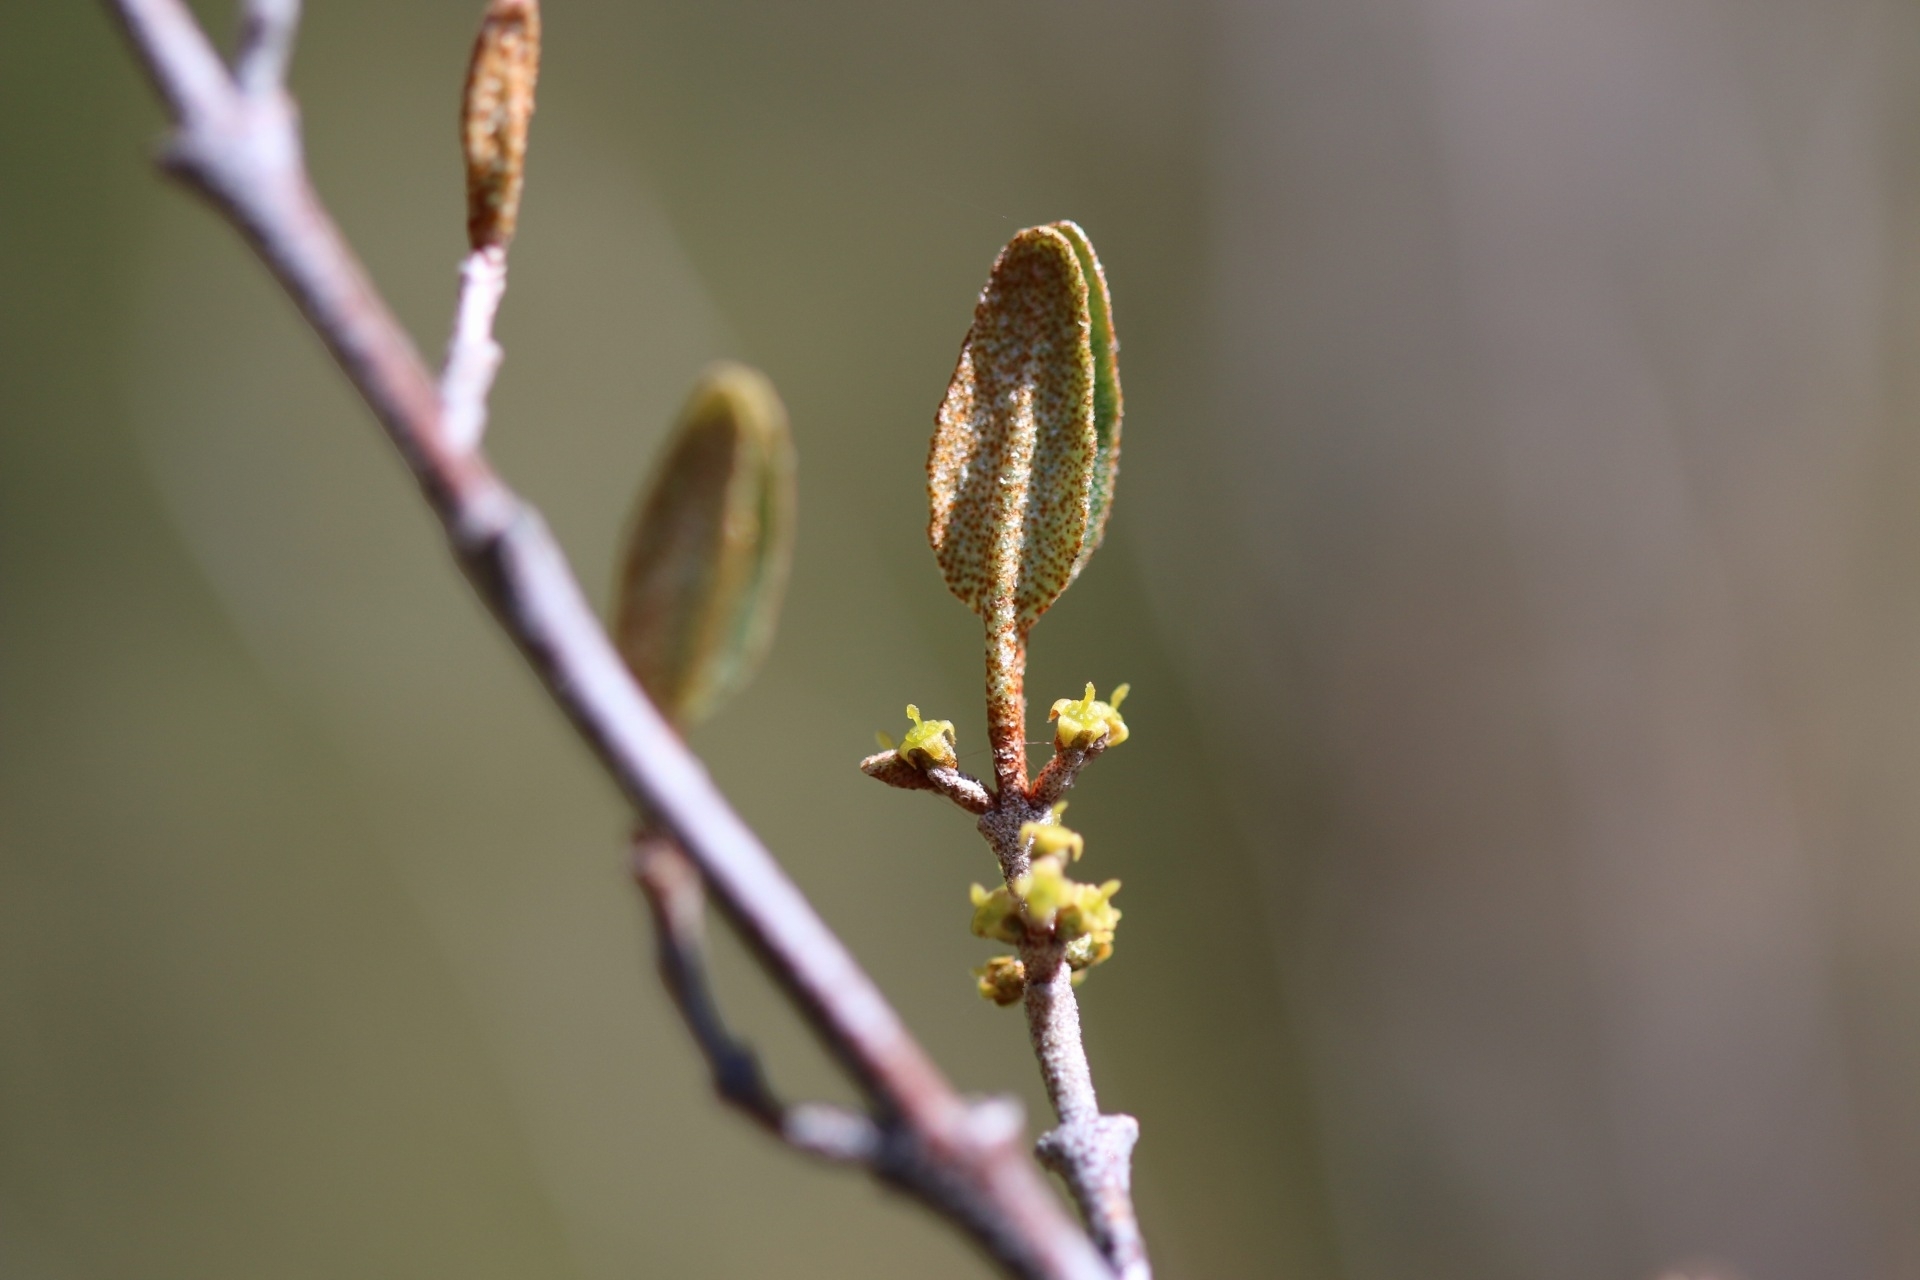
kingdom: Plantae
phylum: Tracheophyta
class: Magnoliopsida
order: Rosales
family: Elaeagnaceae
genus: Shepherdia
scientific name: Shepherdia canadensis
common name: Soapberry
